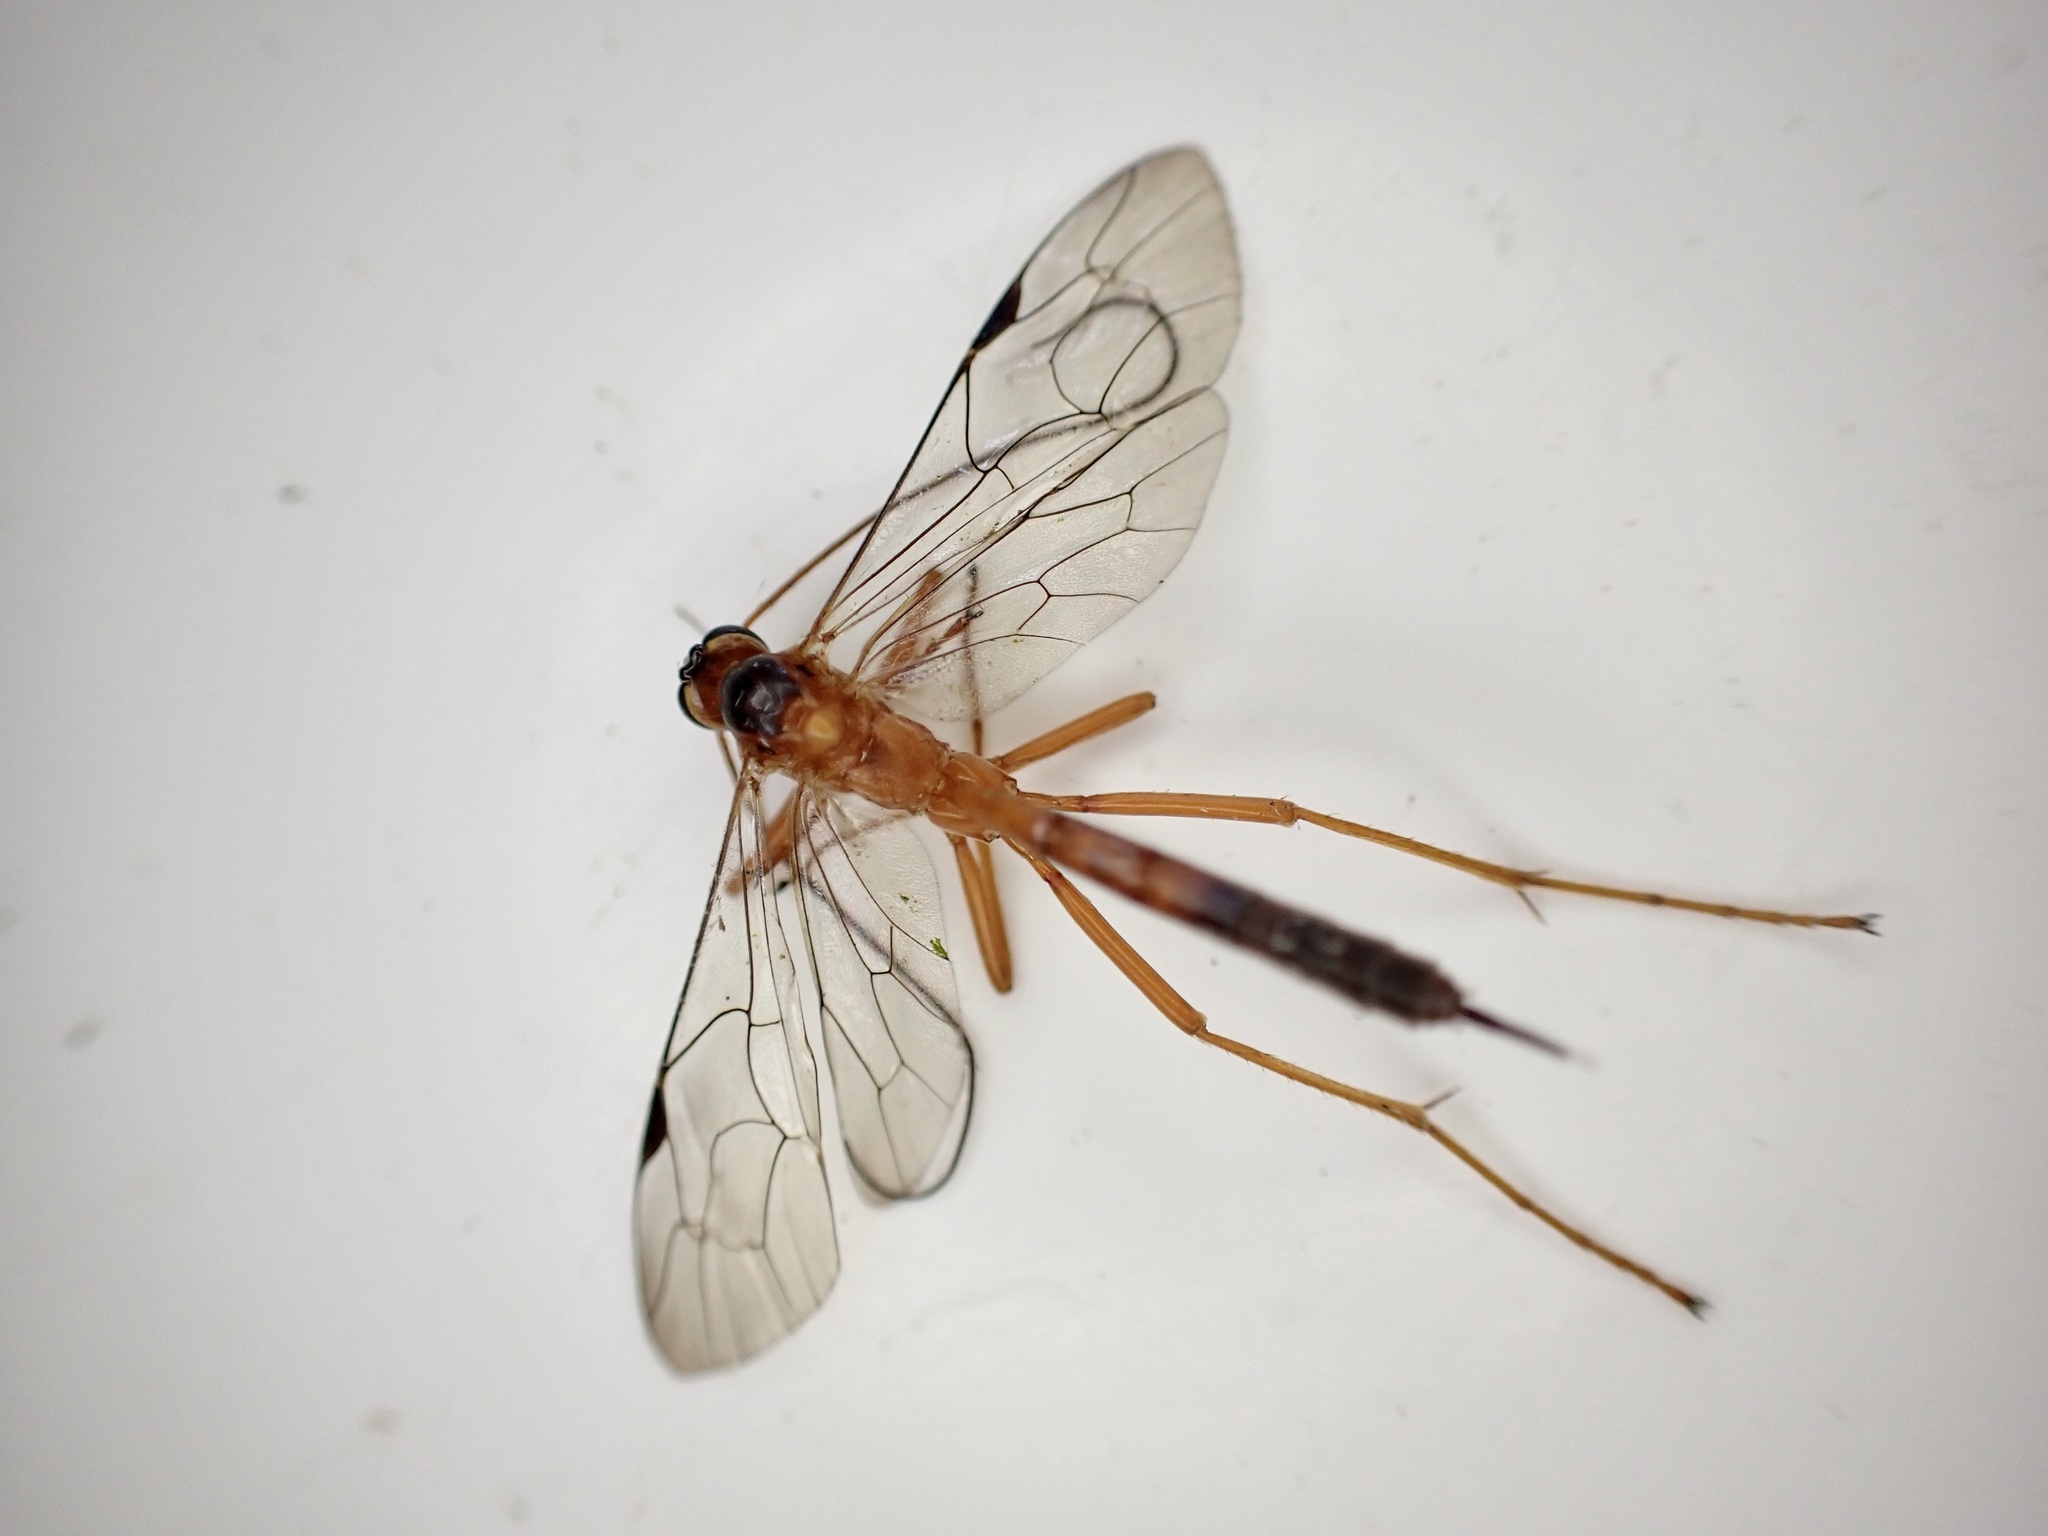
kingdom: Animalia
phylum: Arthropoda
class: Insecta
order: Hymenoptera
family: Ichneumonidae
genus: Netelia
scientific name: Netelia ephippiata
